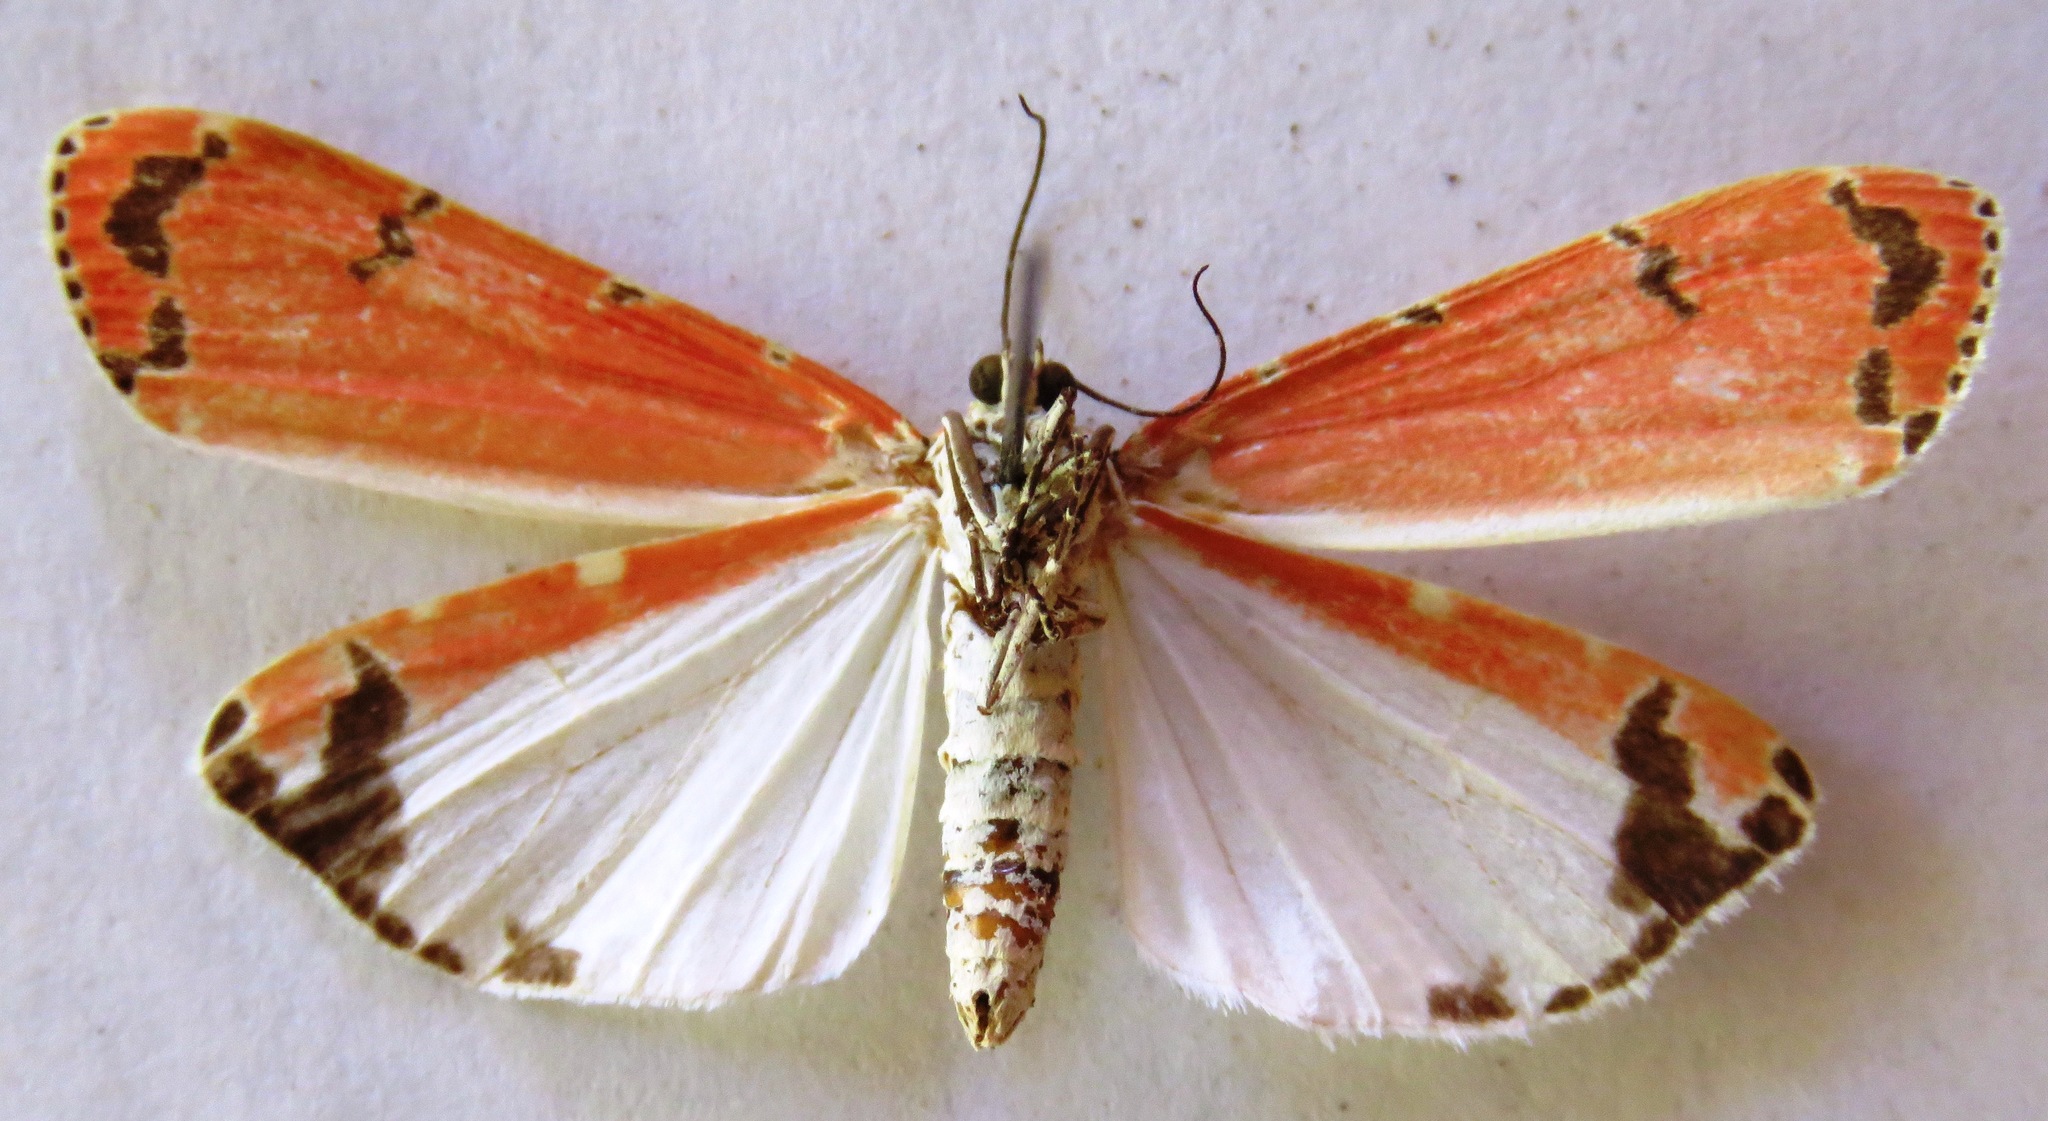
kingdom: Animalia
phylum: Arthropoda
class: Insecta
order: Lepidoptera
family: Erebidae
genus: Utetheisa
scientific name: Utetheisa ornatrix
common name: Beautiful utetheisa
